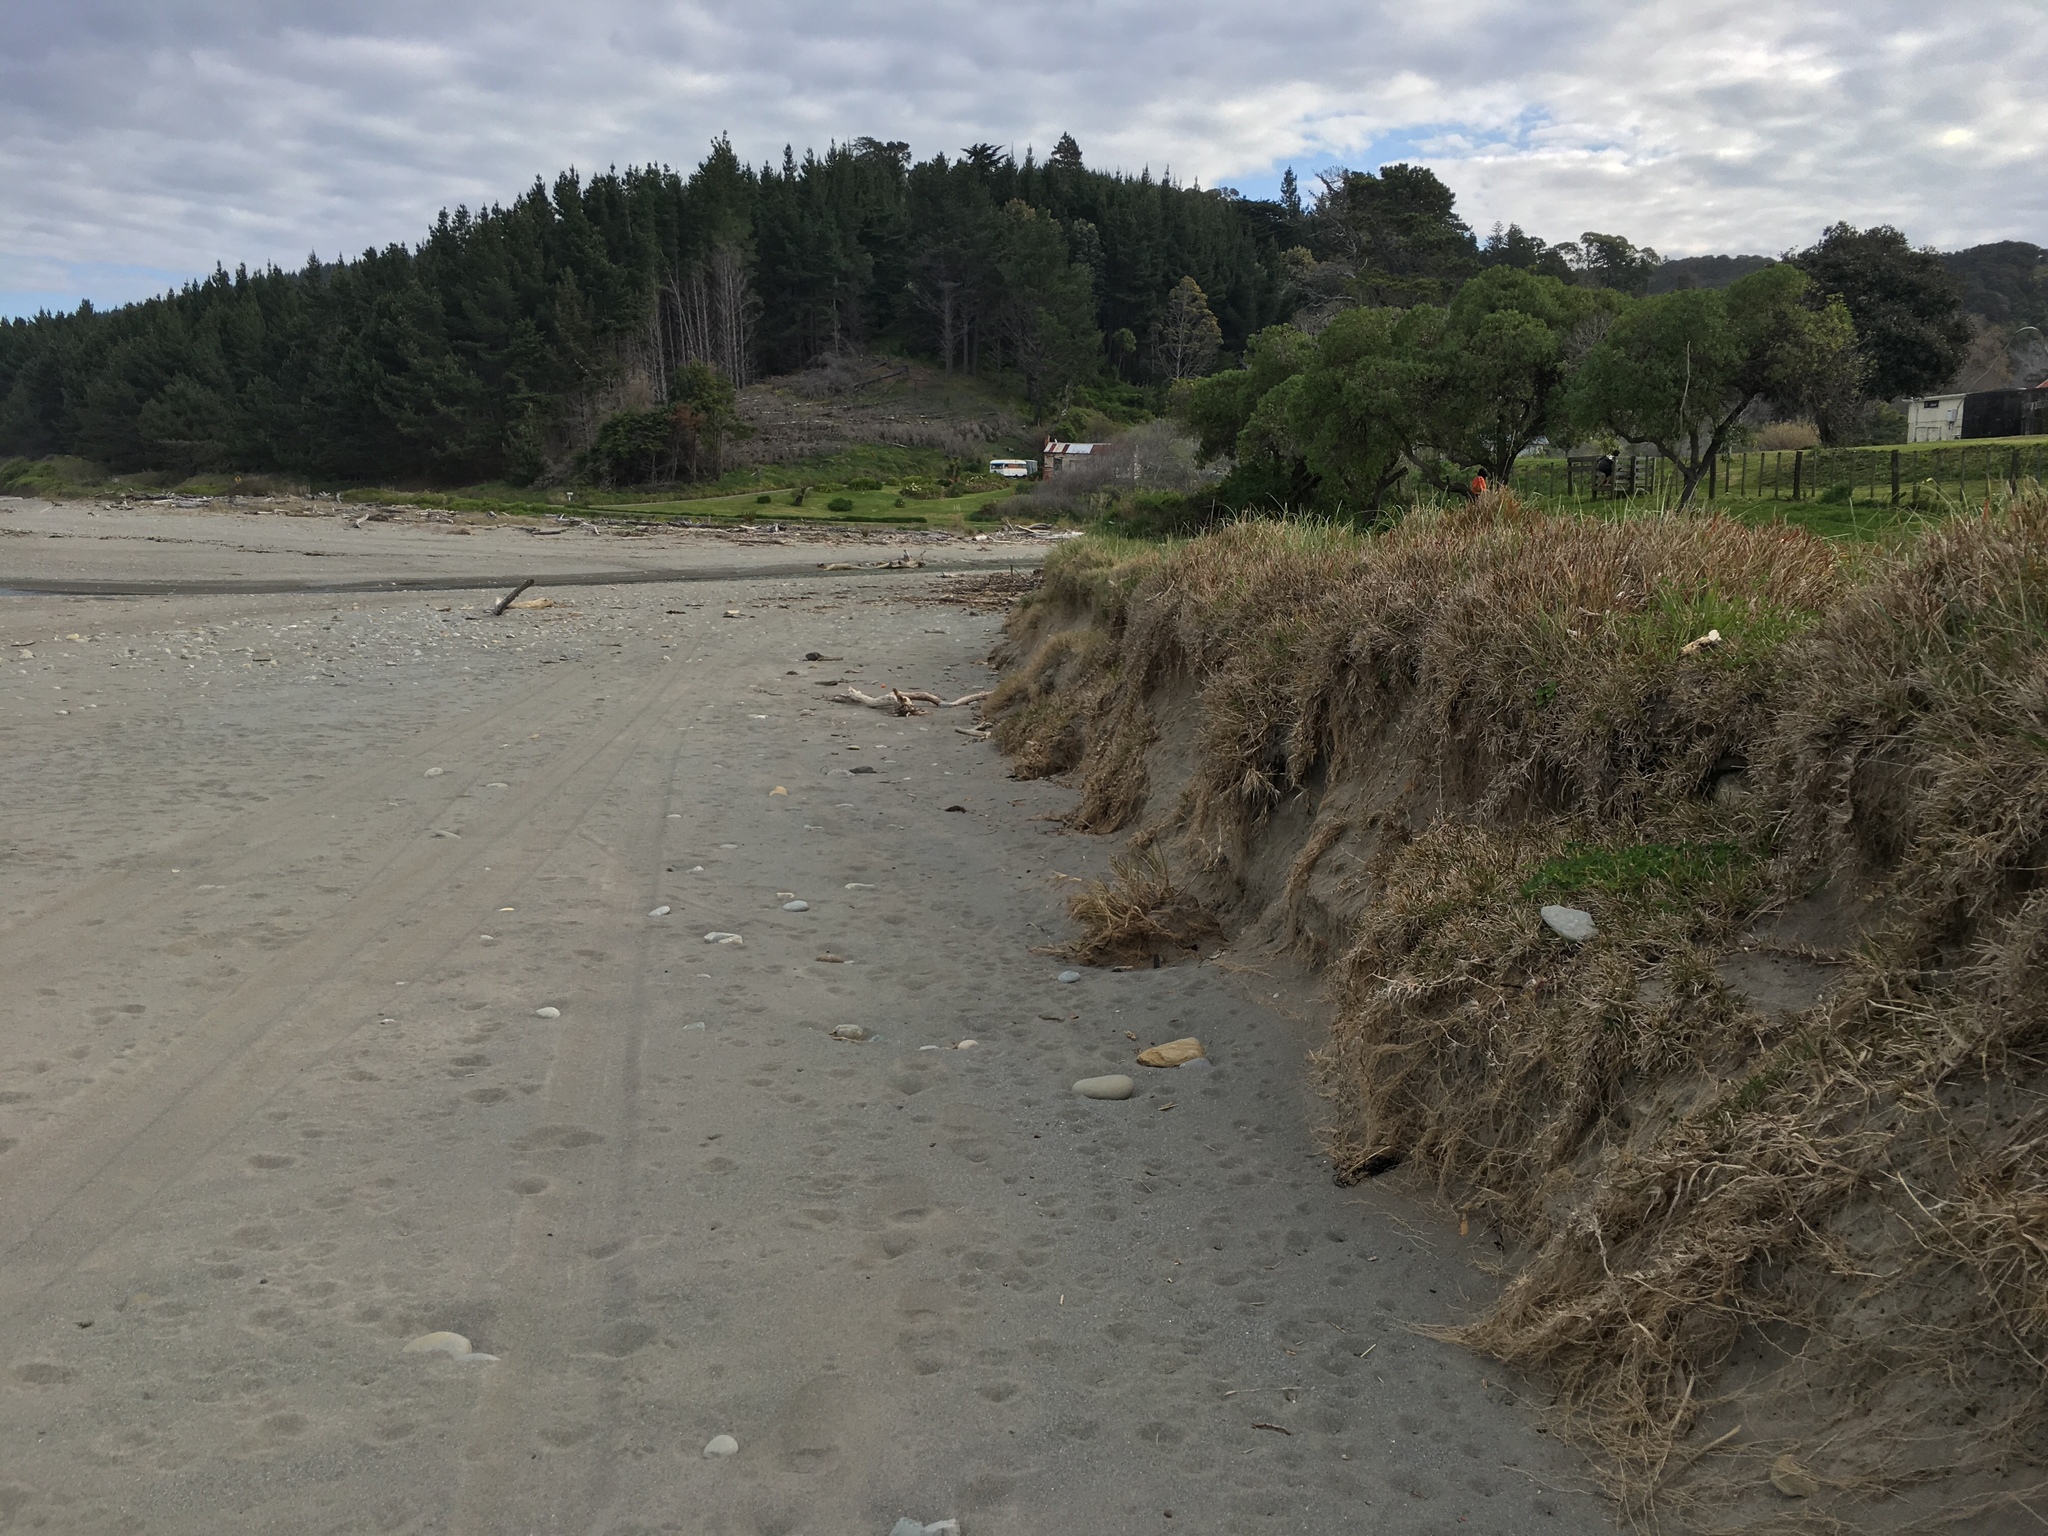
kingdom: Plantae
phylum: Tracheophyta
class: Liliopsida
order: Poales
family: Poaceae
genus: Stenotaphrum
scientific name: Stenotaphrum secundatum
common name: St. augustine grass
